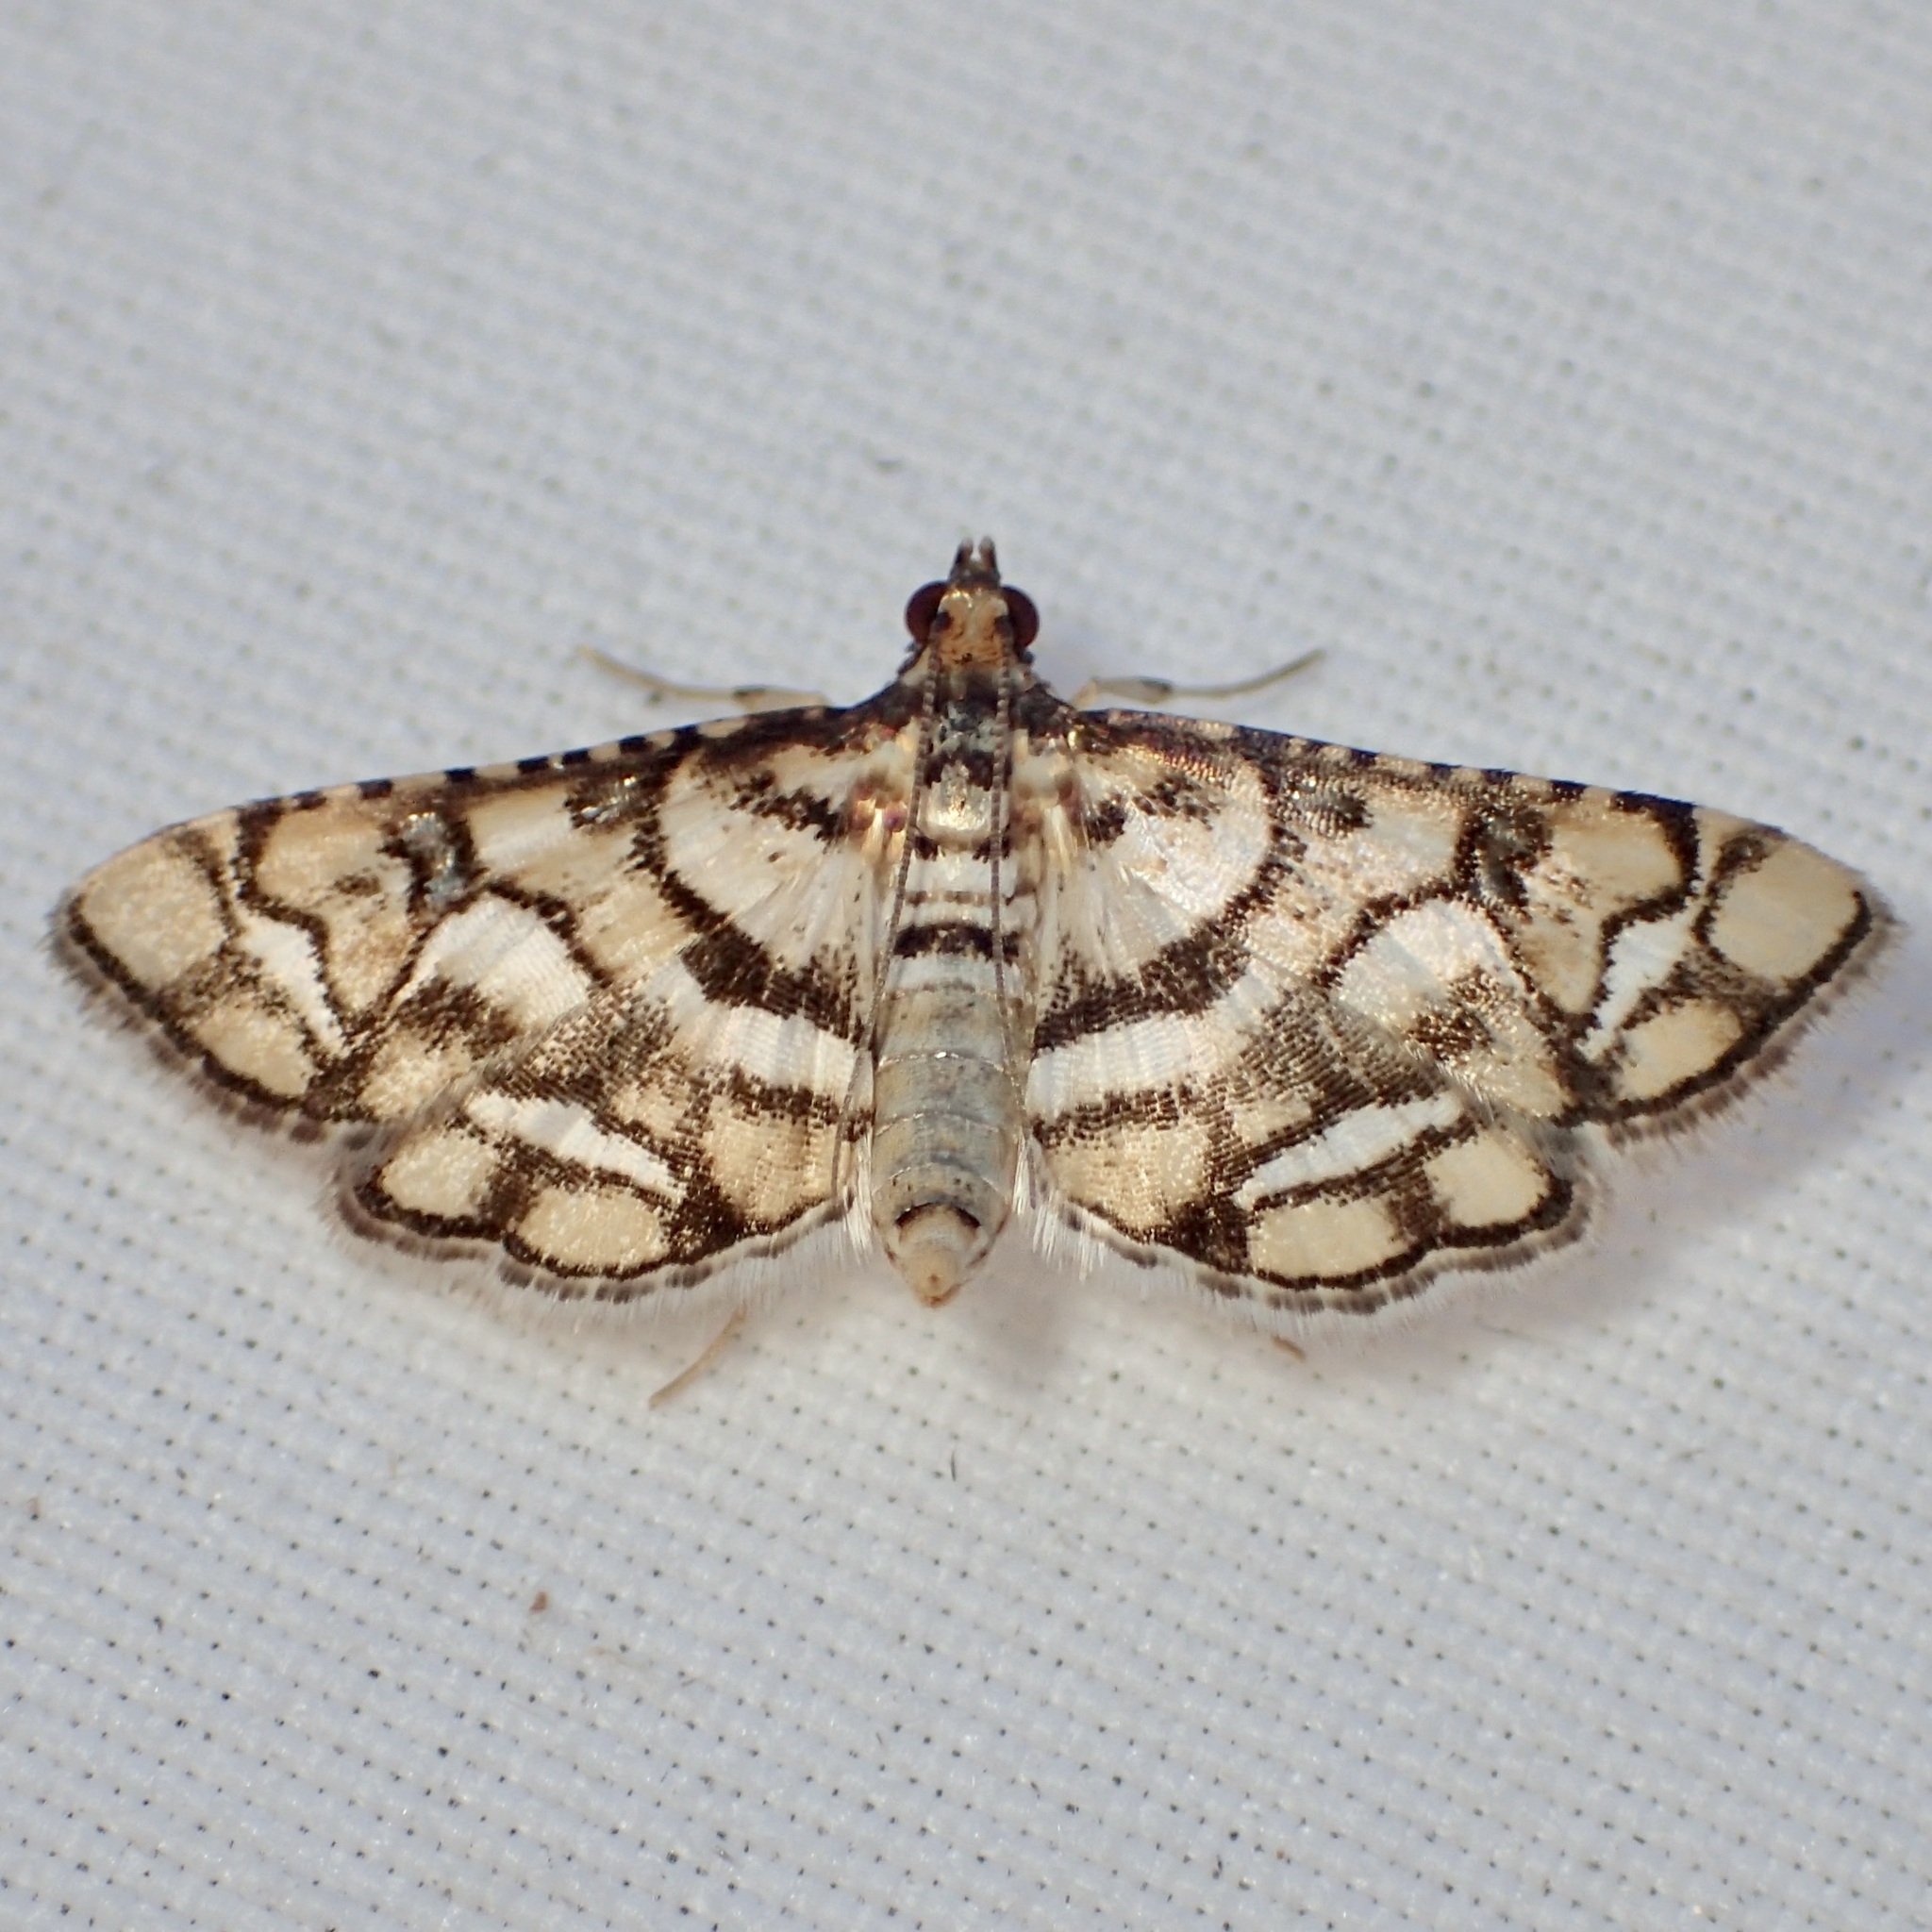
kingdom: Animalia
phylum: Arthropoda
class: Insecta
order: Lepidoptera
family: Crambidae
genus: Hileithia
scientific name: Hileithia magualis
